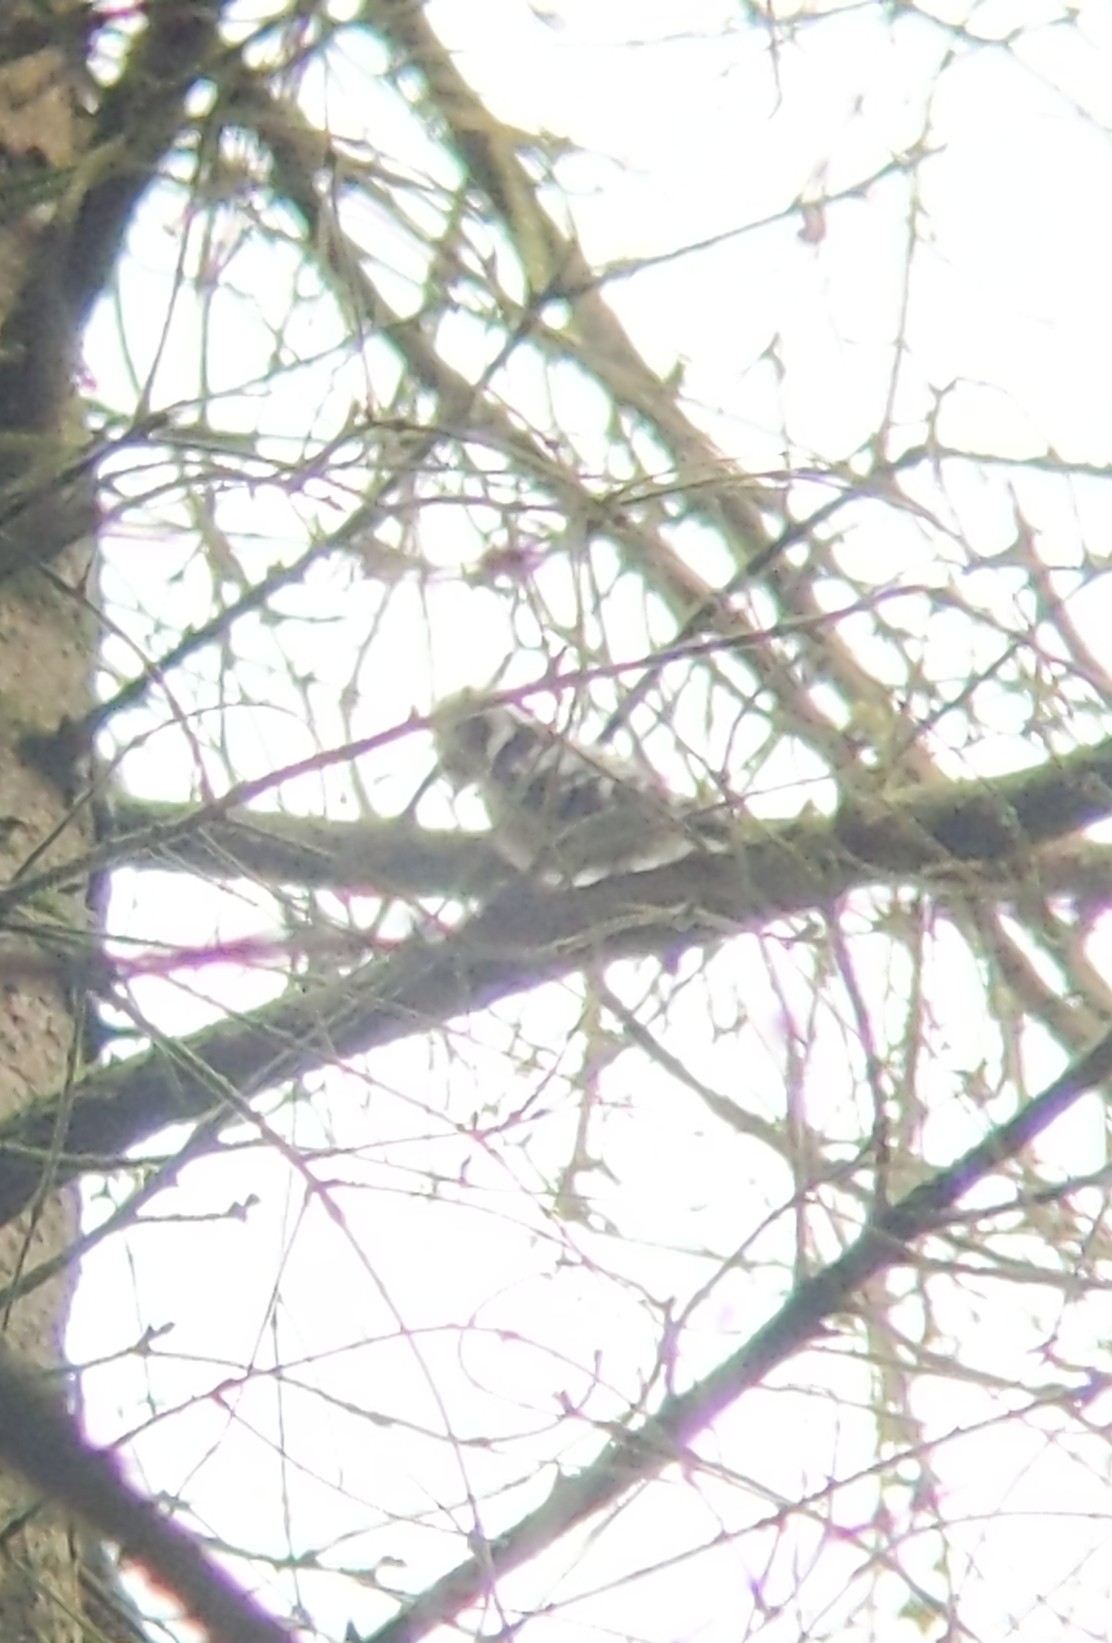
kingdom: Animalia
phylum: Chordata
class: Aves
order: Piciformes
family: Picidae
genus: Dryobates
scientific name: Dryobates minor
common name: Lesser spotted woodpecker
